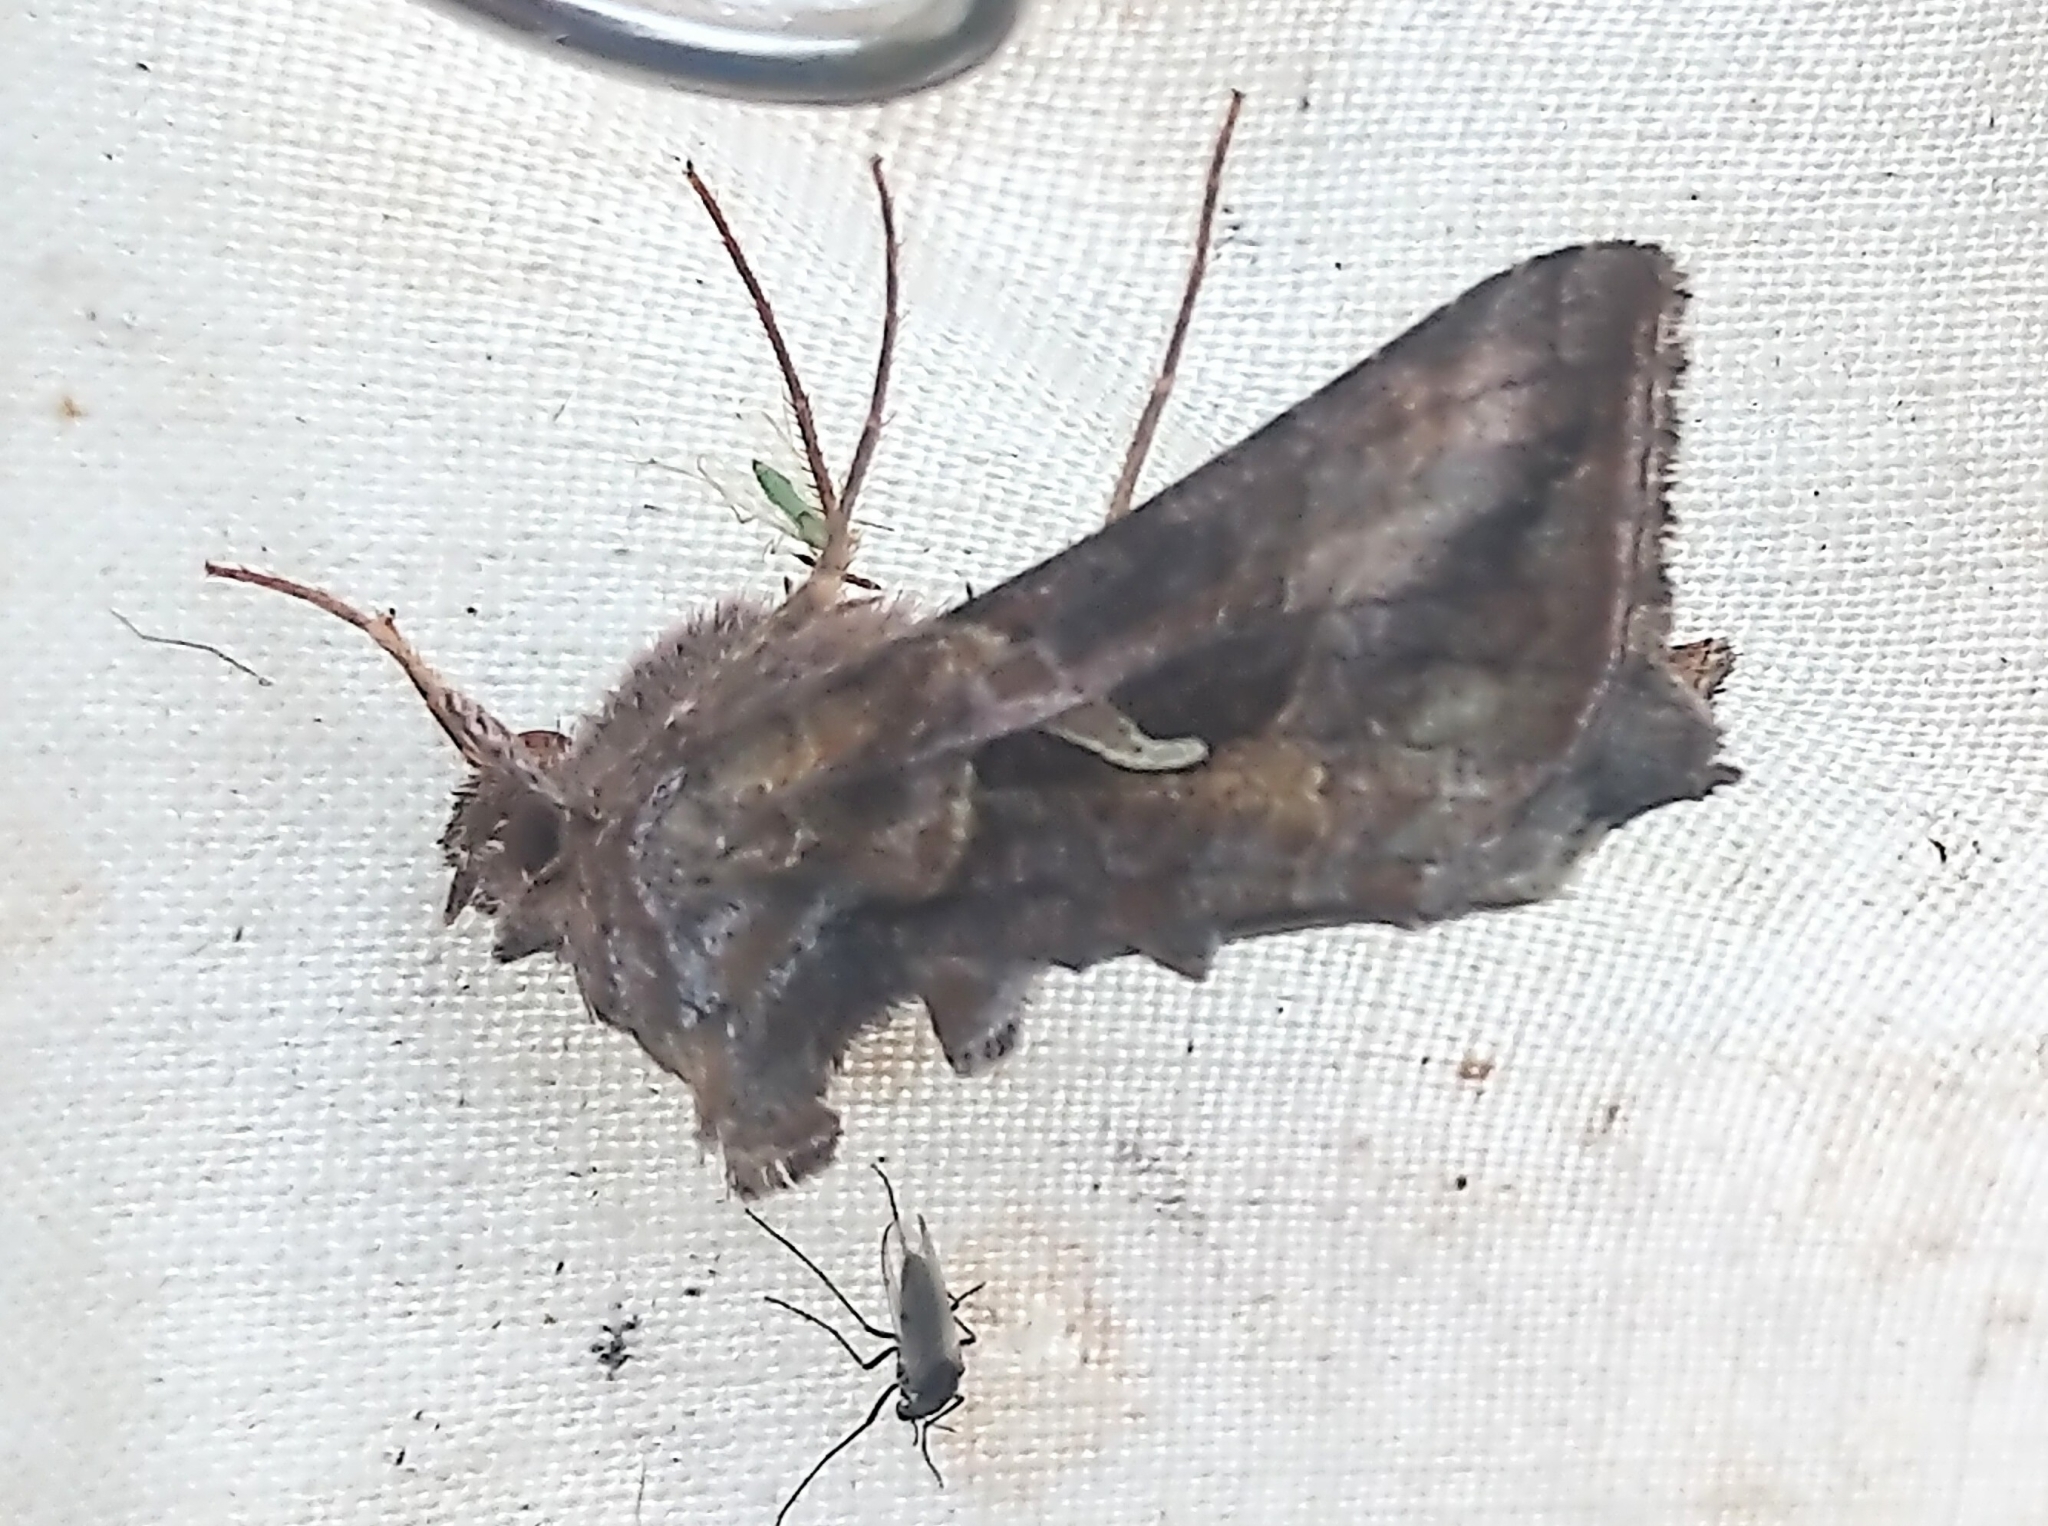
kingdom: Animalia
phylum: Arthropoda
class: Insecta
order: Lepidoptera
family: Noctuidae
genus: Autographa
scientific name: Autographa rubidus
